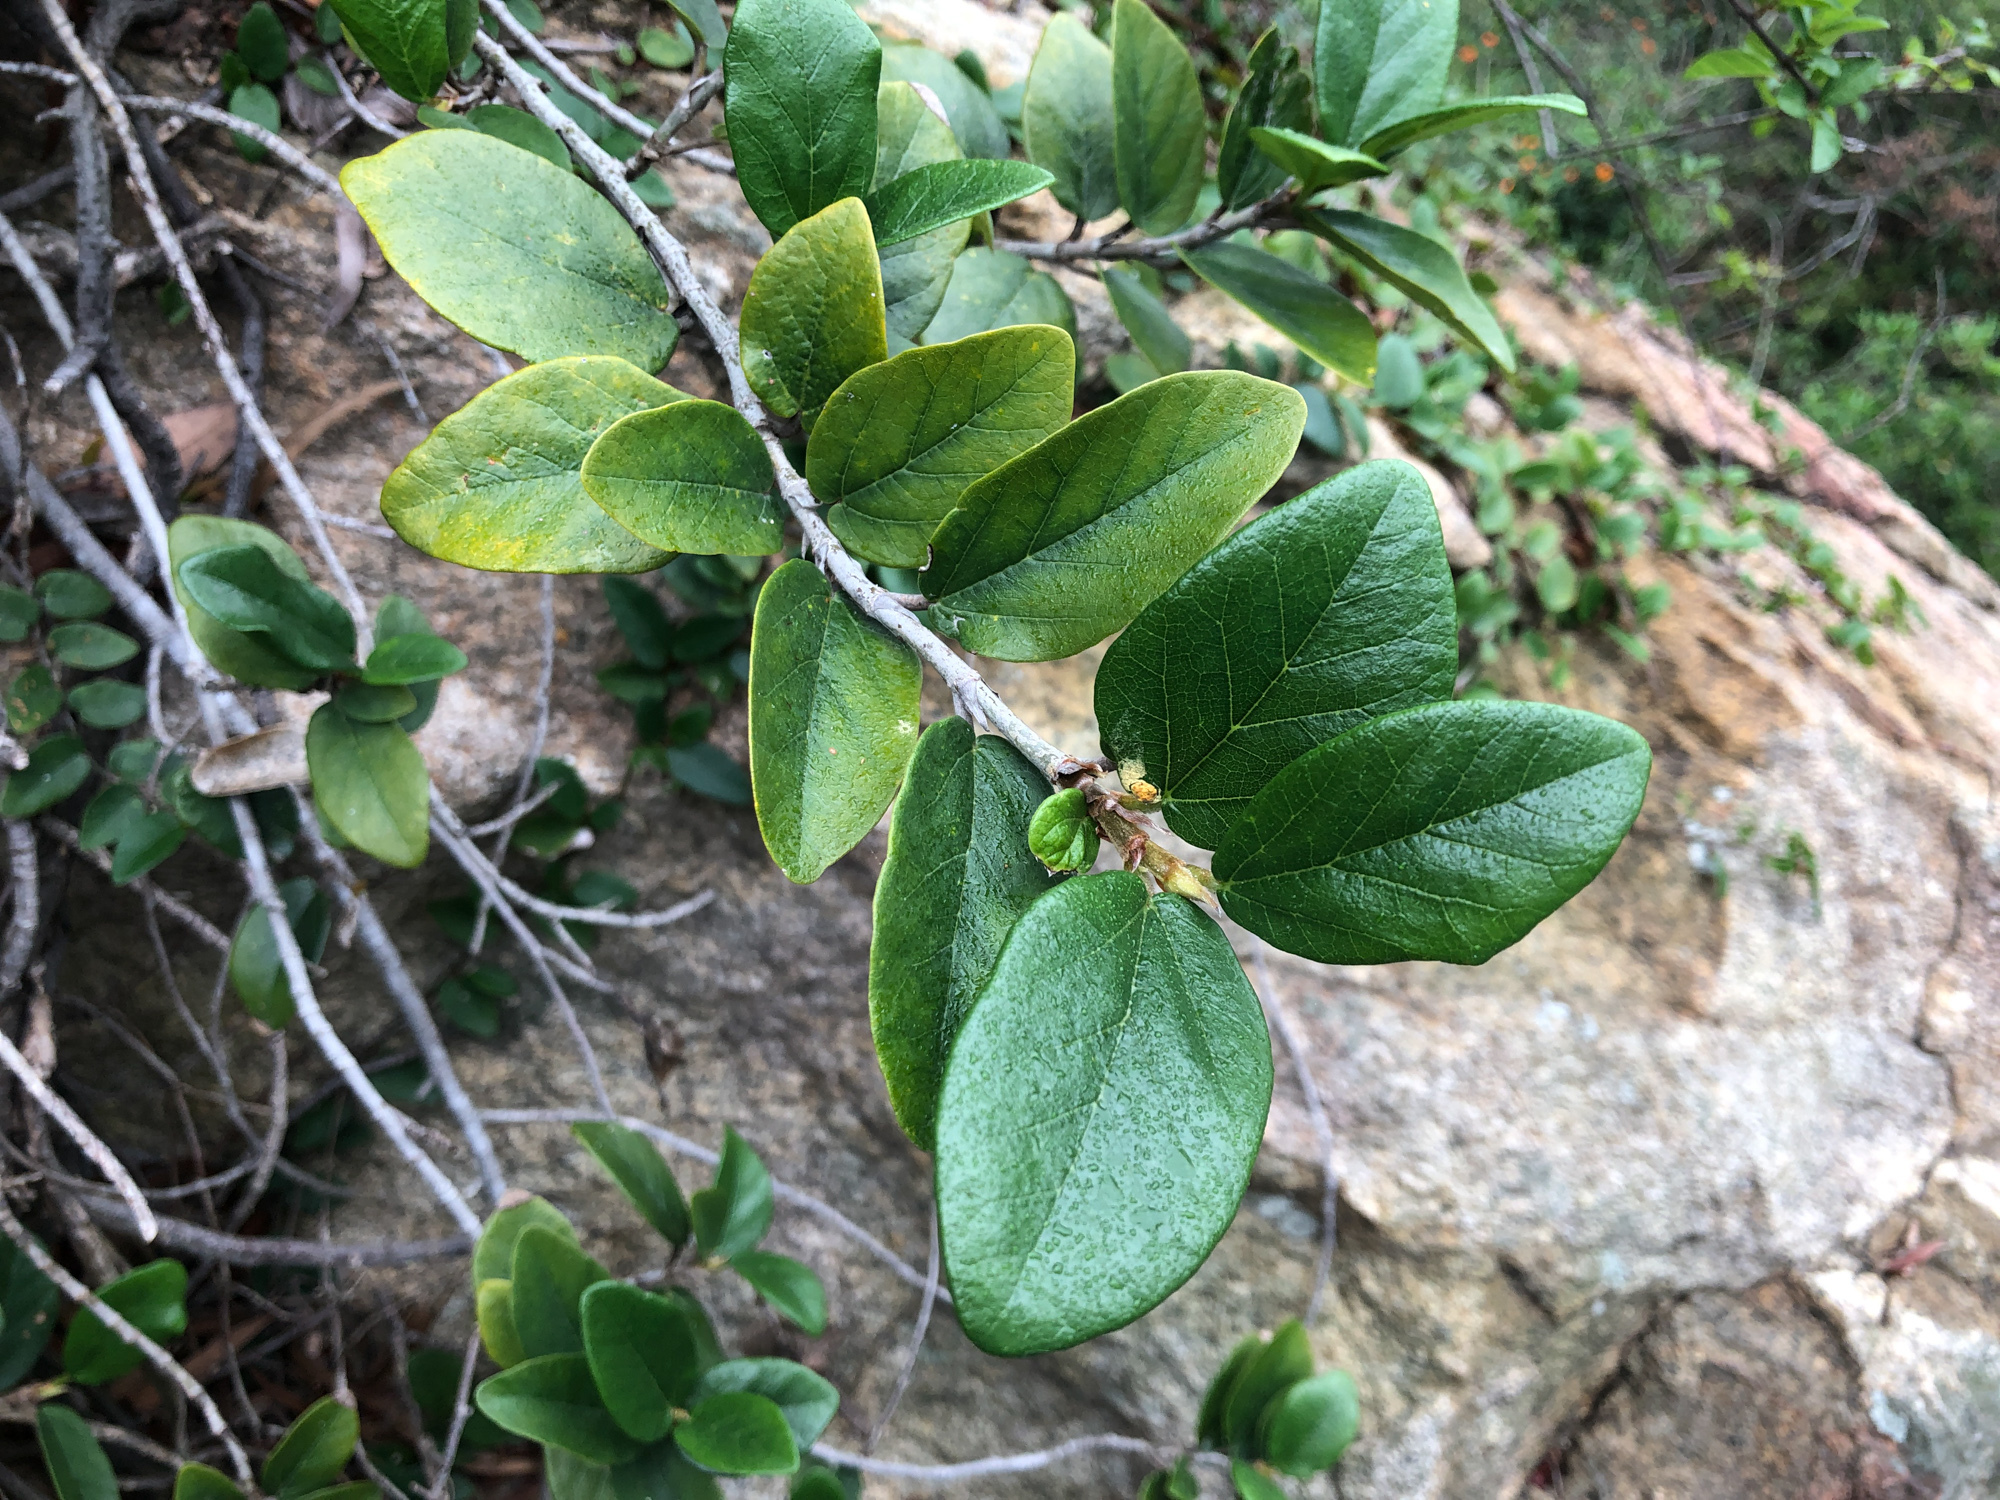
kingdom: Plantae
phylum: Tracheophyta
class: Magnoliopsida
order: Rosales
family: Moraceae
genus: Ficus
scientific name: Ficus pumila
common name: Climbingfig
